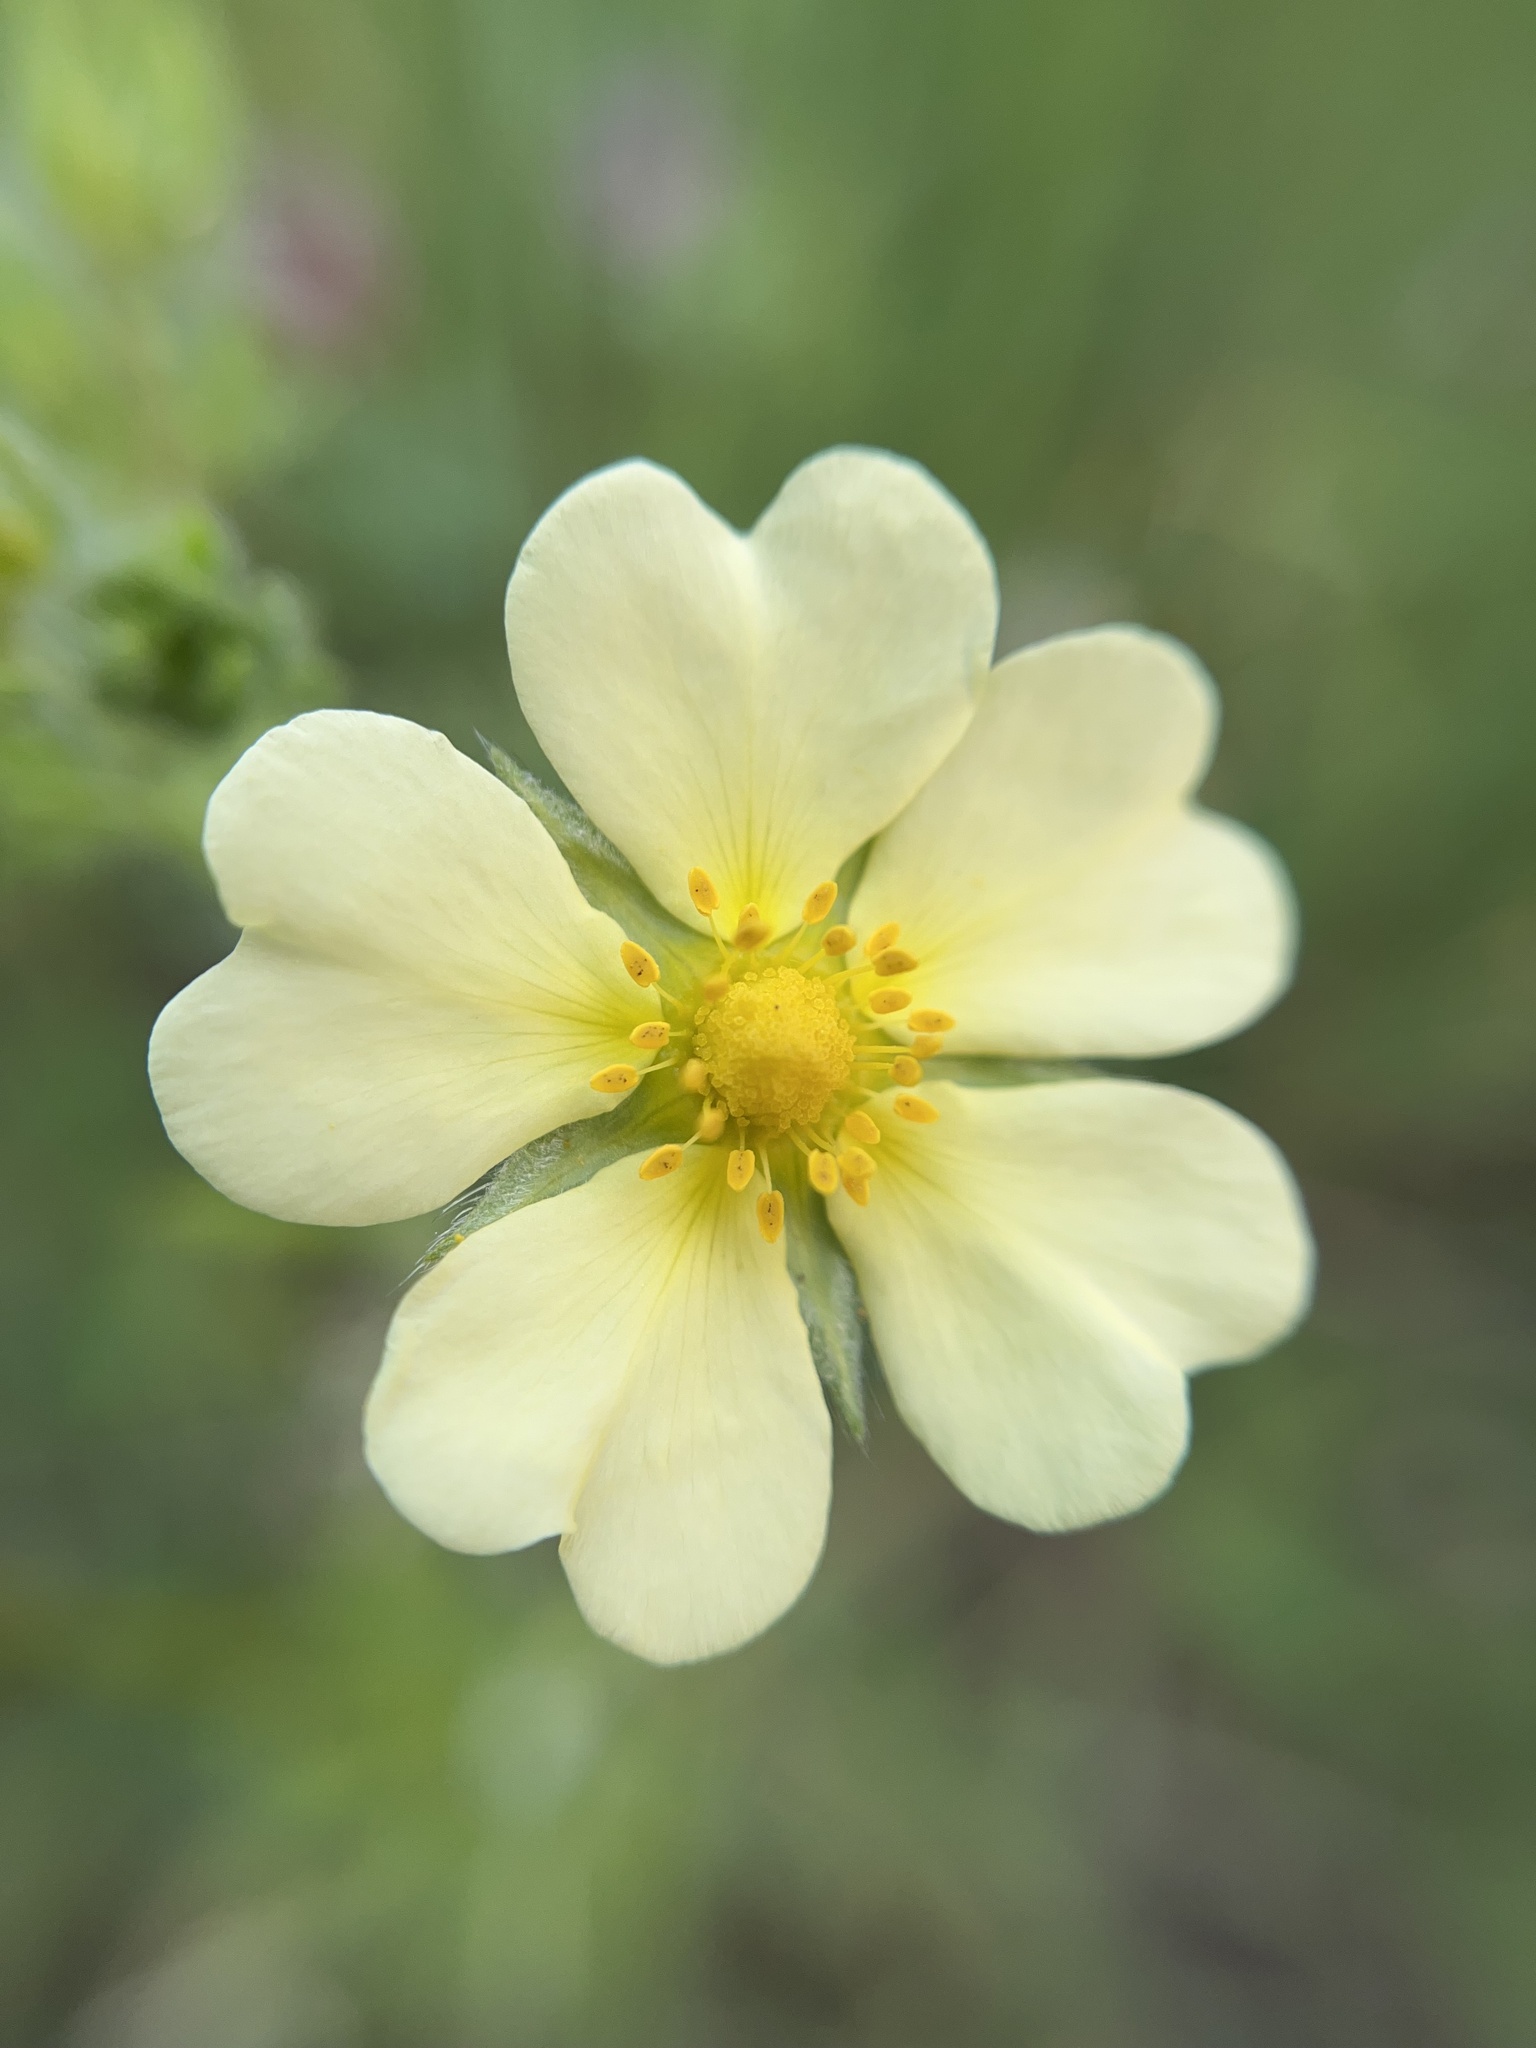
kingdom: Plantae
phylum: Tracheophyta
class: Magnoliopsida
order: Rosales
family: Rosaceae
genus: Potentilla
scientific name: Potentilla recta
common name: Sulphur cinquefoil
